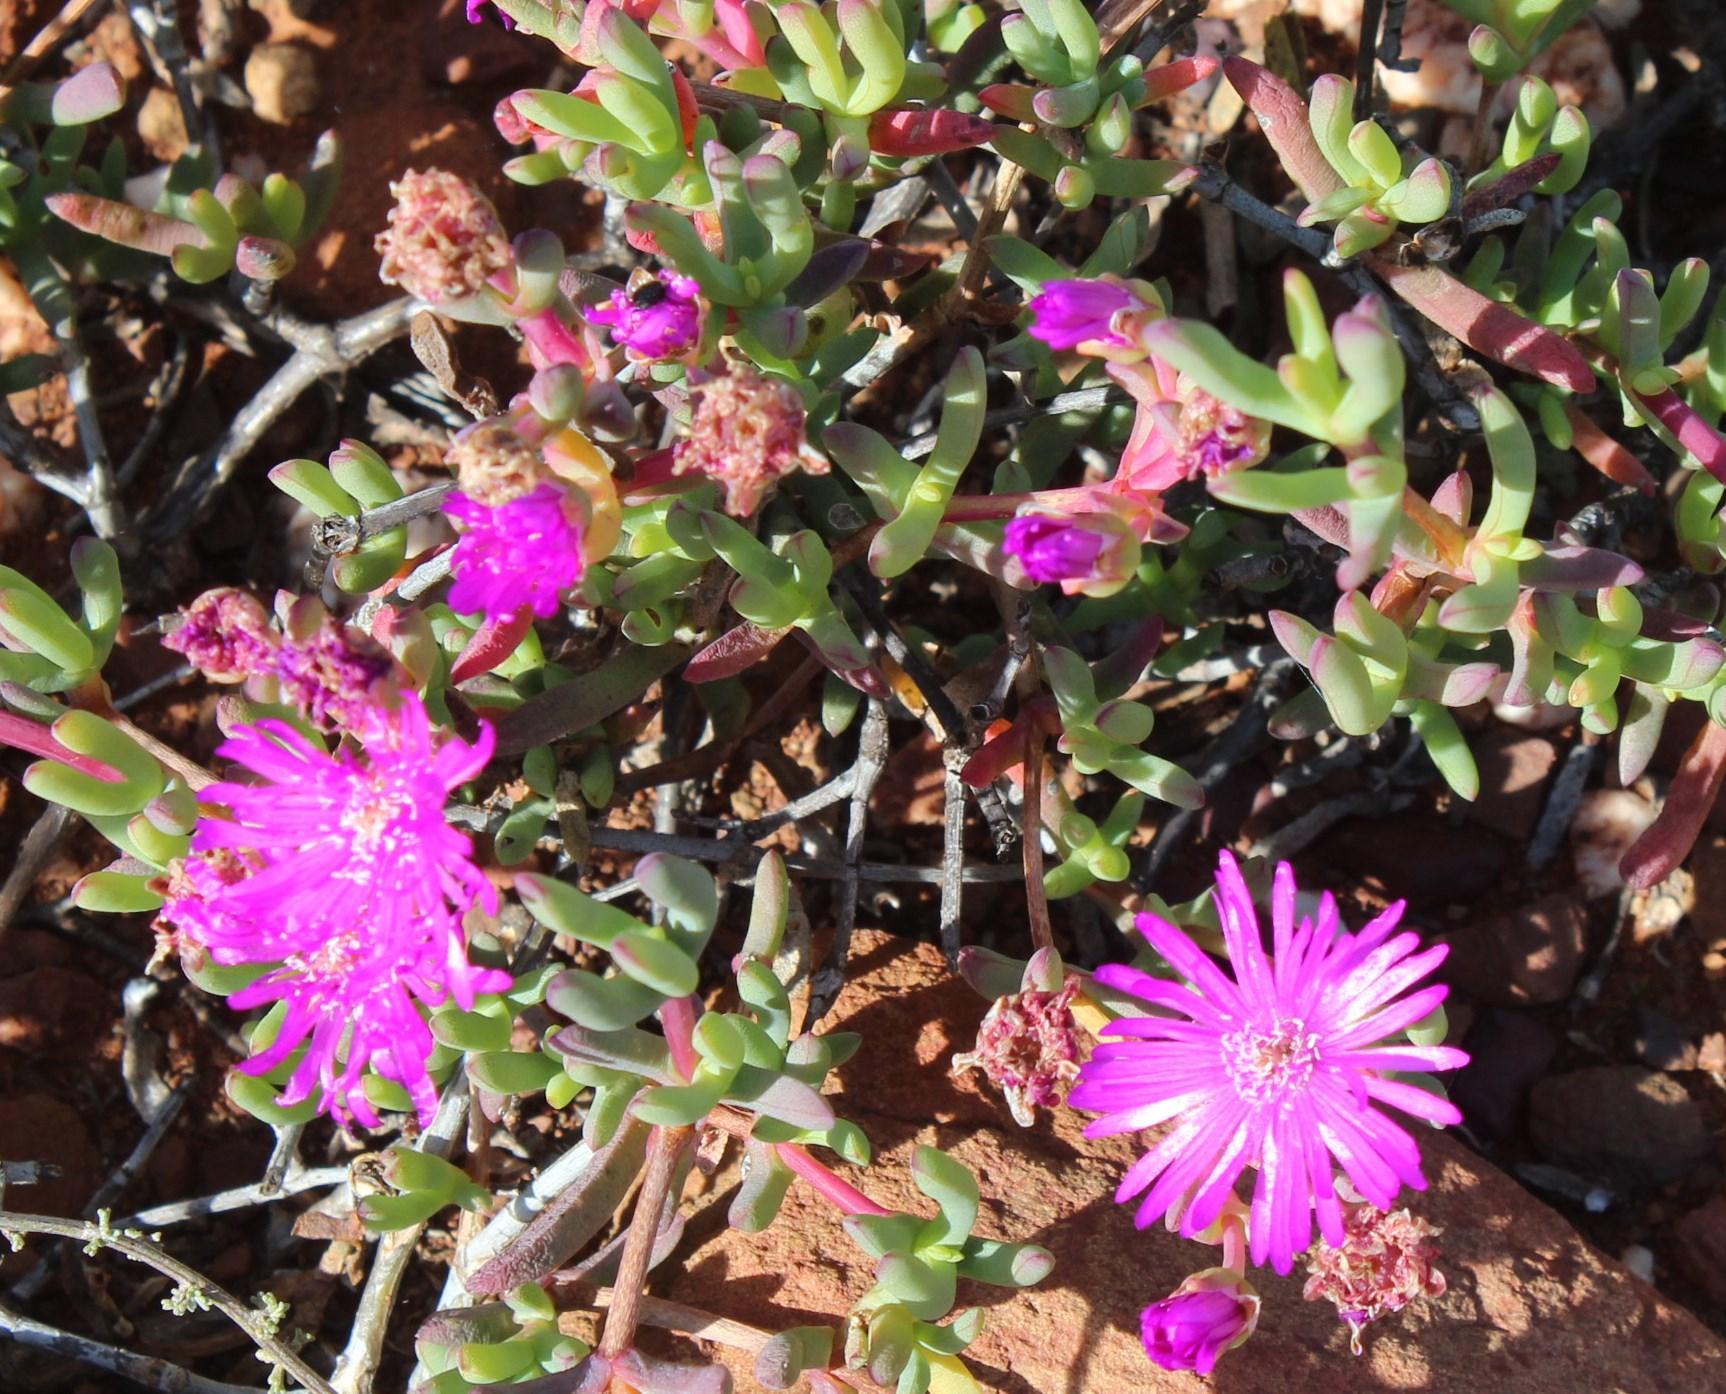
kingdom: Plantae
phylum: Tracheophyta
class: Magnoliopsida
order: Caryophyllales
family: Aizoaceae
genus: Leipoldtia
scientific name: Leipoldtia schultzei
